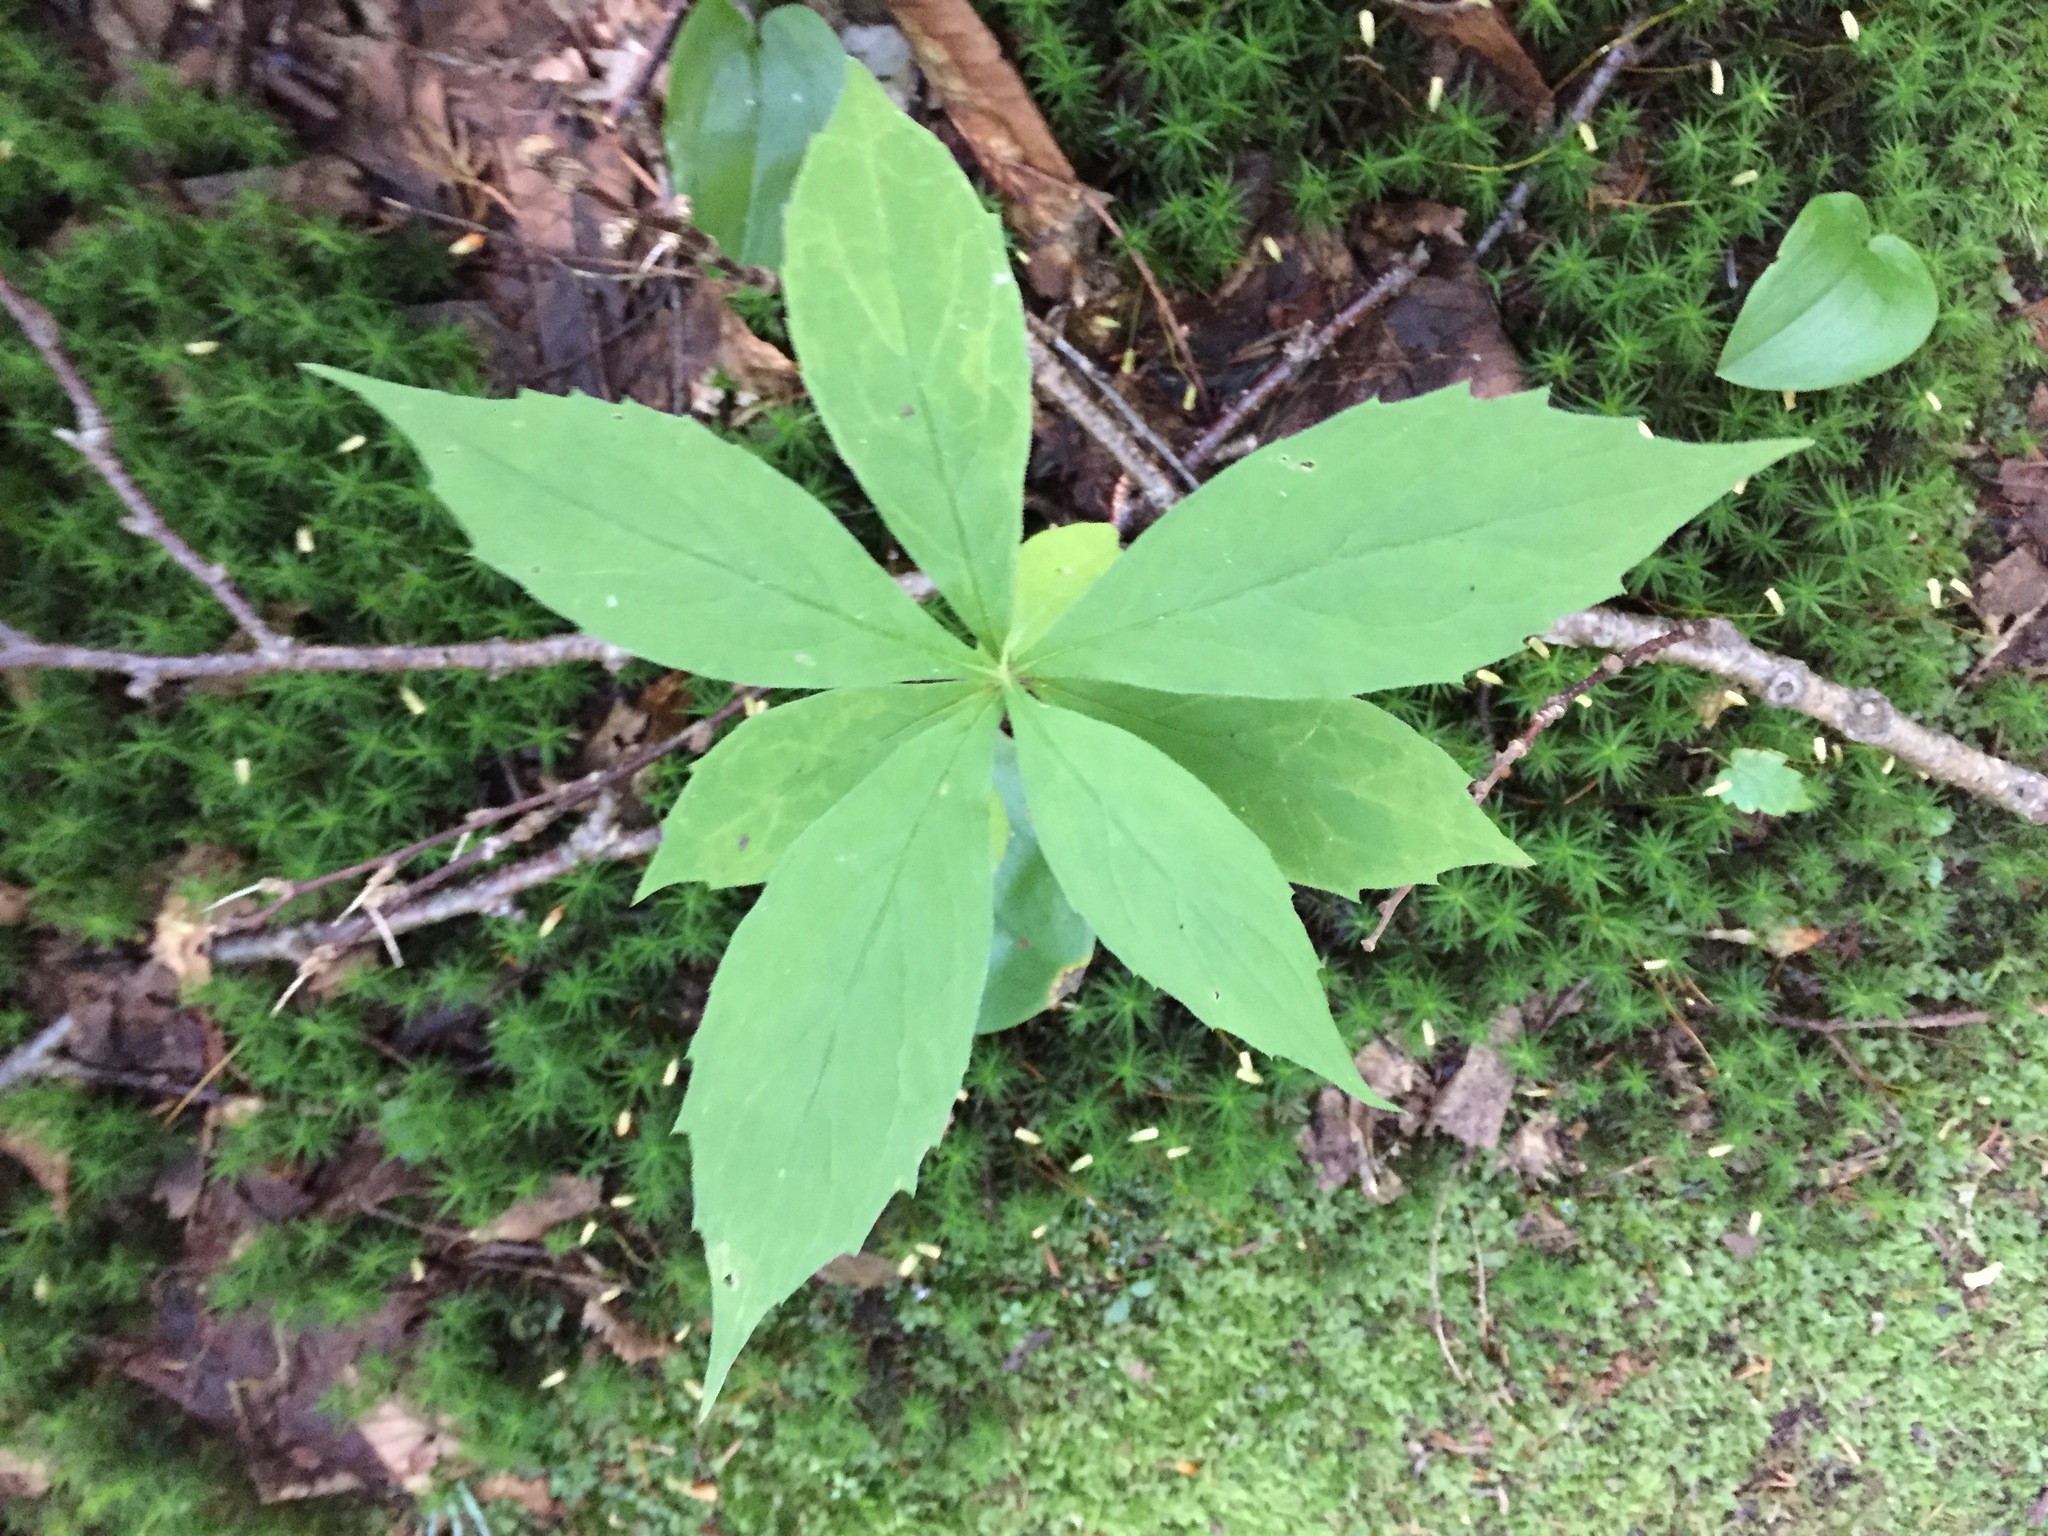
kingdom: Plantae
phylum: Tracheophyta
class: Magnoliopsida
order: Asterales
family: Asteraceae
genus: Oclemena
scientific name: Oclemena acuminata
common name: Mountain aster
